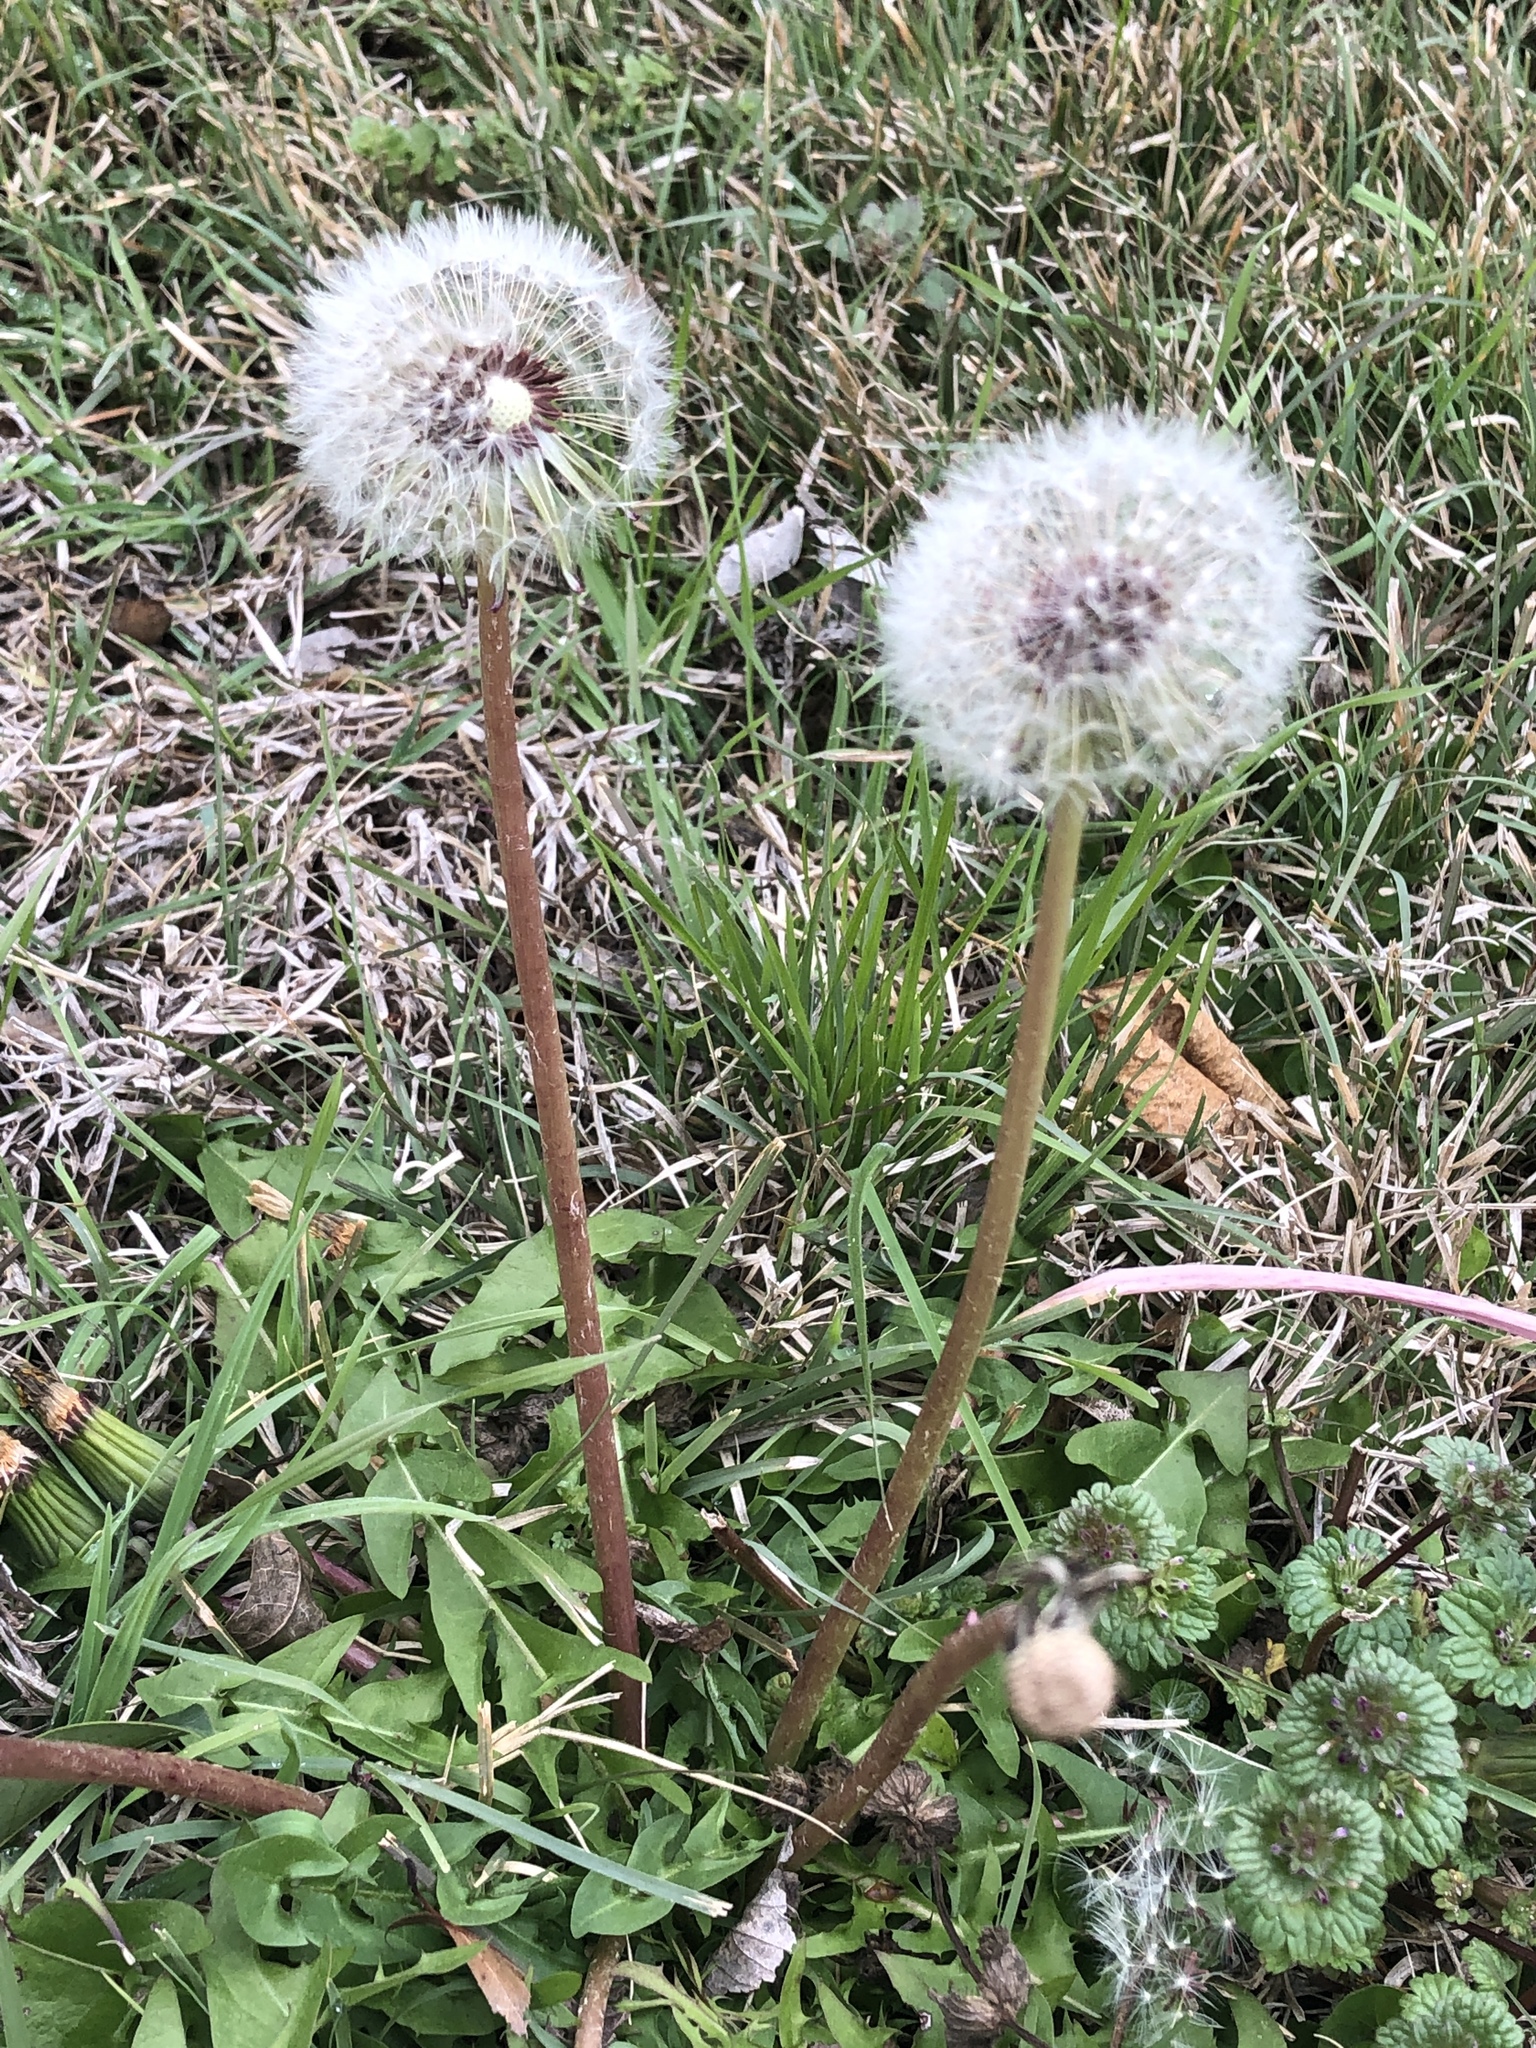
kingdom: Plantae
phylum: Tracheophyta
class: Magnoliopsida
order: Asterales
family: Asteraceae
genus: Taraxacum
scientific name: Taraxacum erythrospermum
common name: Rock dandelion
